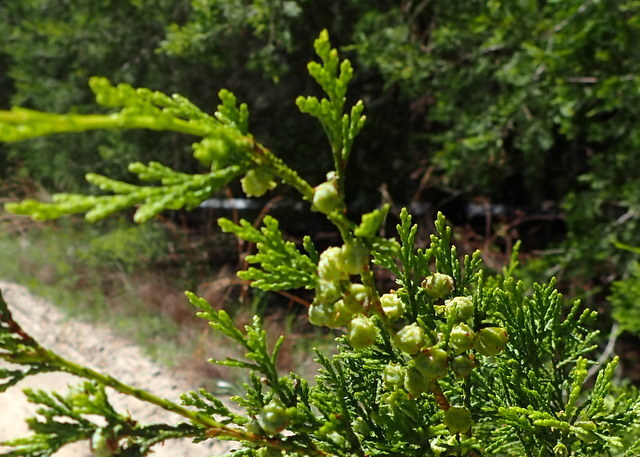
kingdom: Plantae
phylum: Tracheophyta
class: Pinopsida
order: Pinales
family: Cupressaceae
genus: Chamaecyparis
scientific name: Chamaecyparis thyoides
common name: Atlantic white cedar
